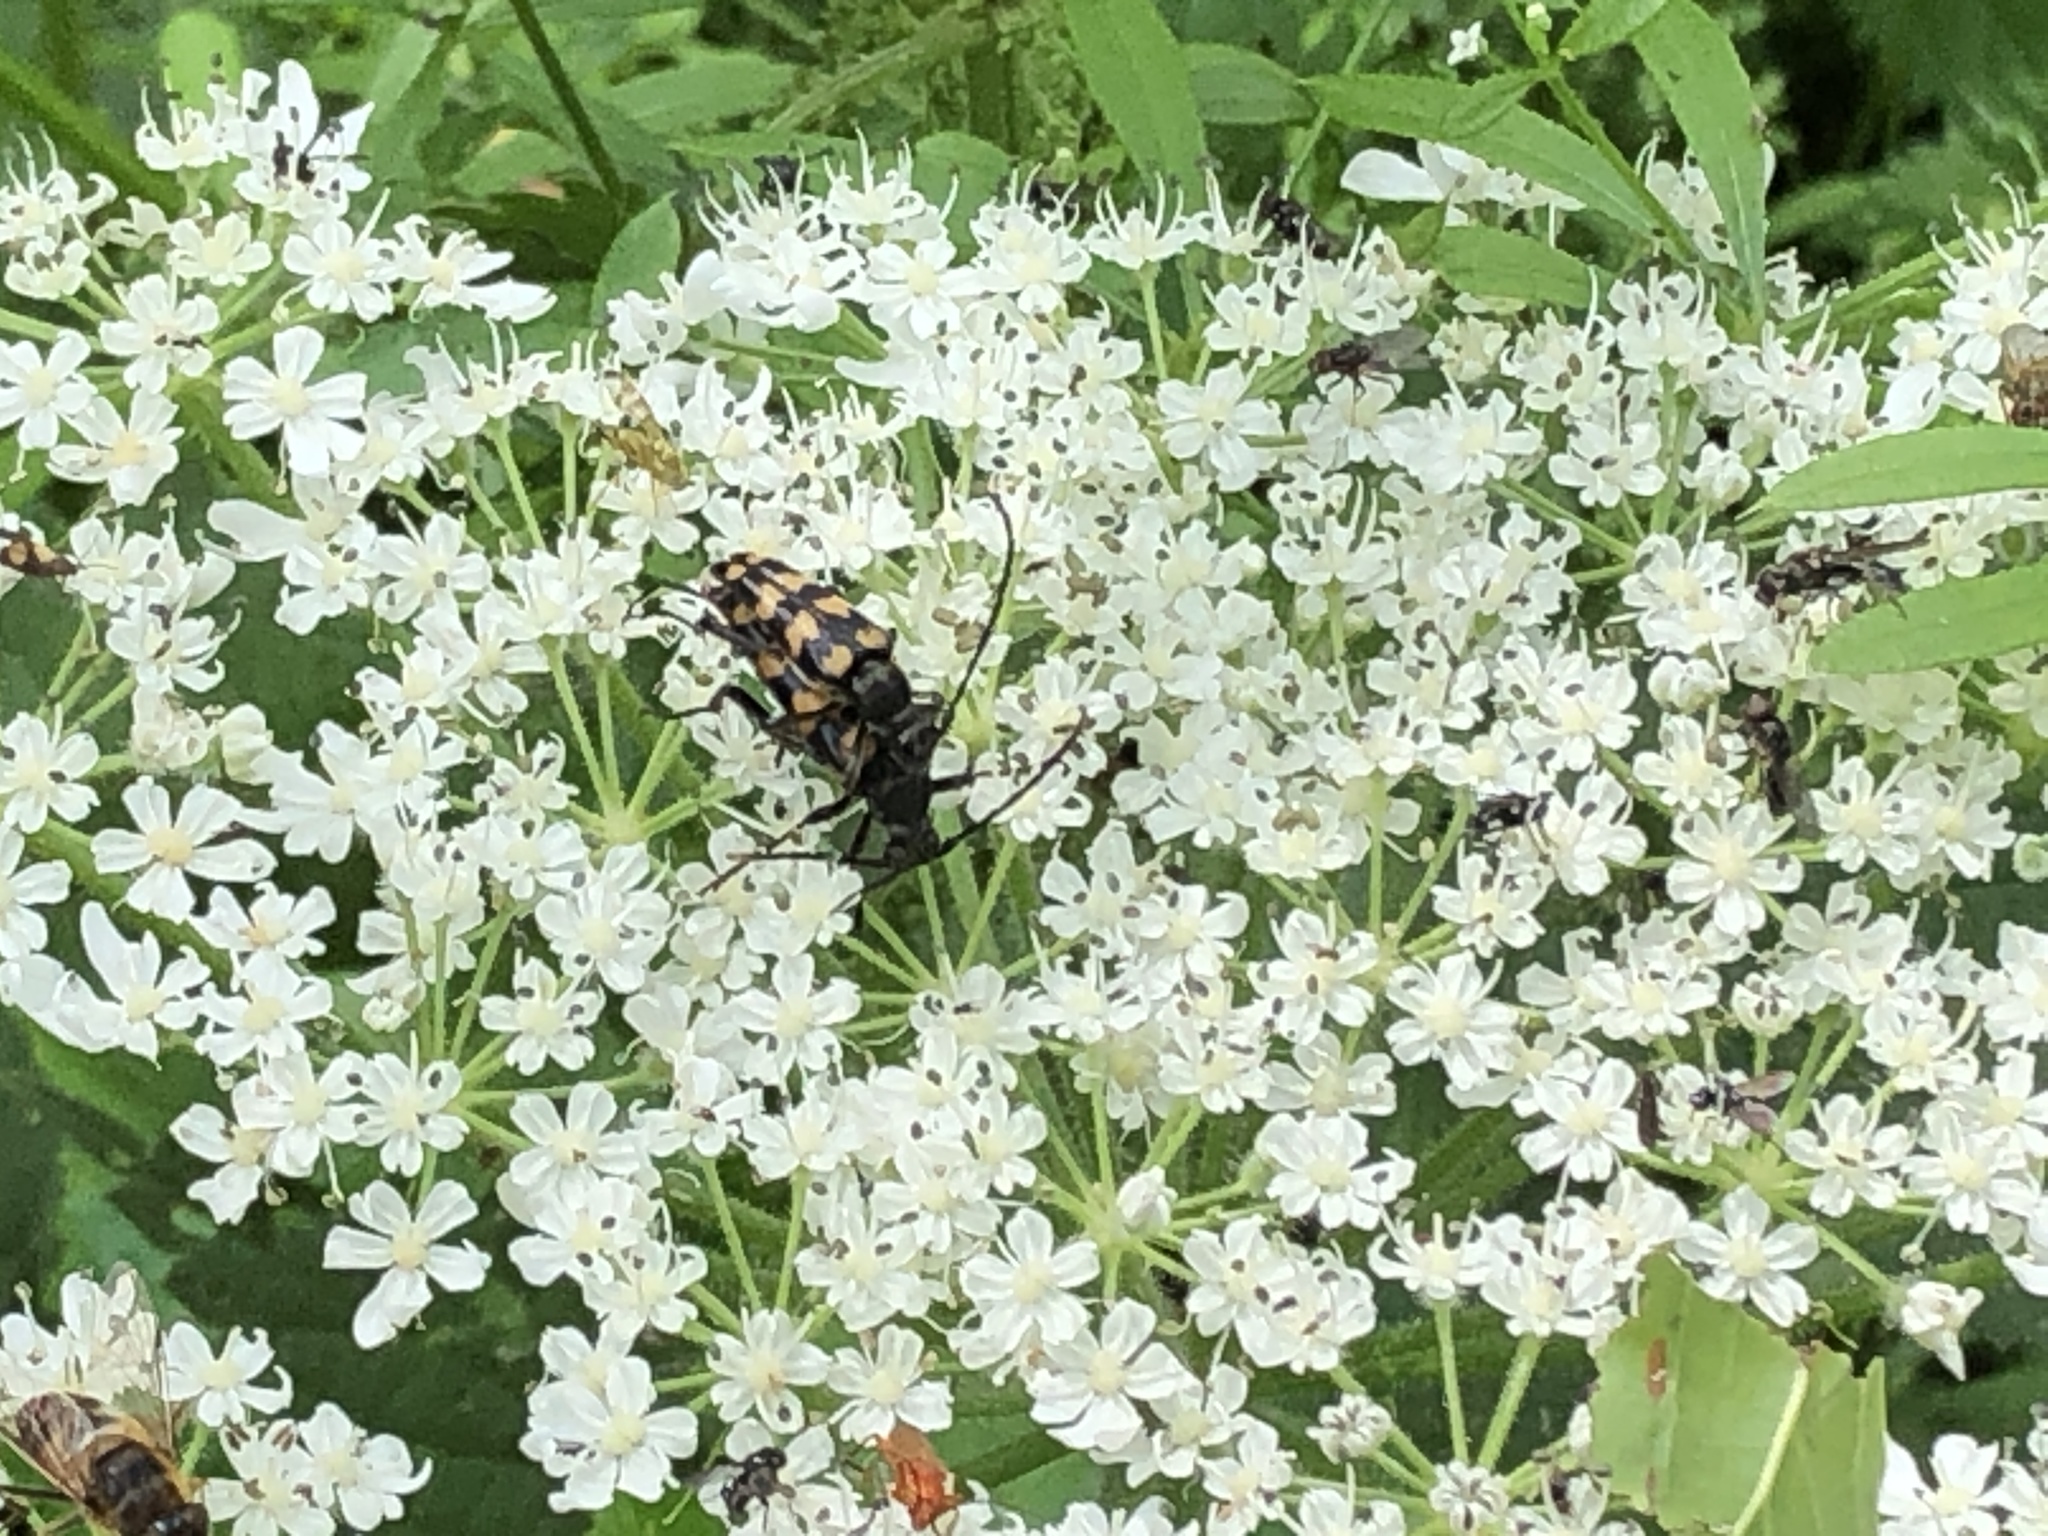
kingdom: Animalia
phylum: Arthropoda
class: Insecta
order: Coleoptera
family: Cerambycidae
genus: Leptura
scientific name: Leptura quadrifasciata
